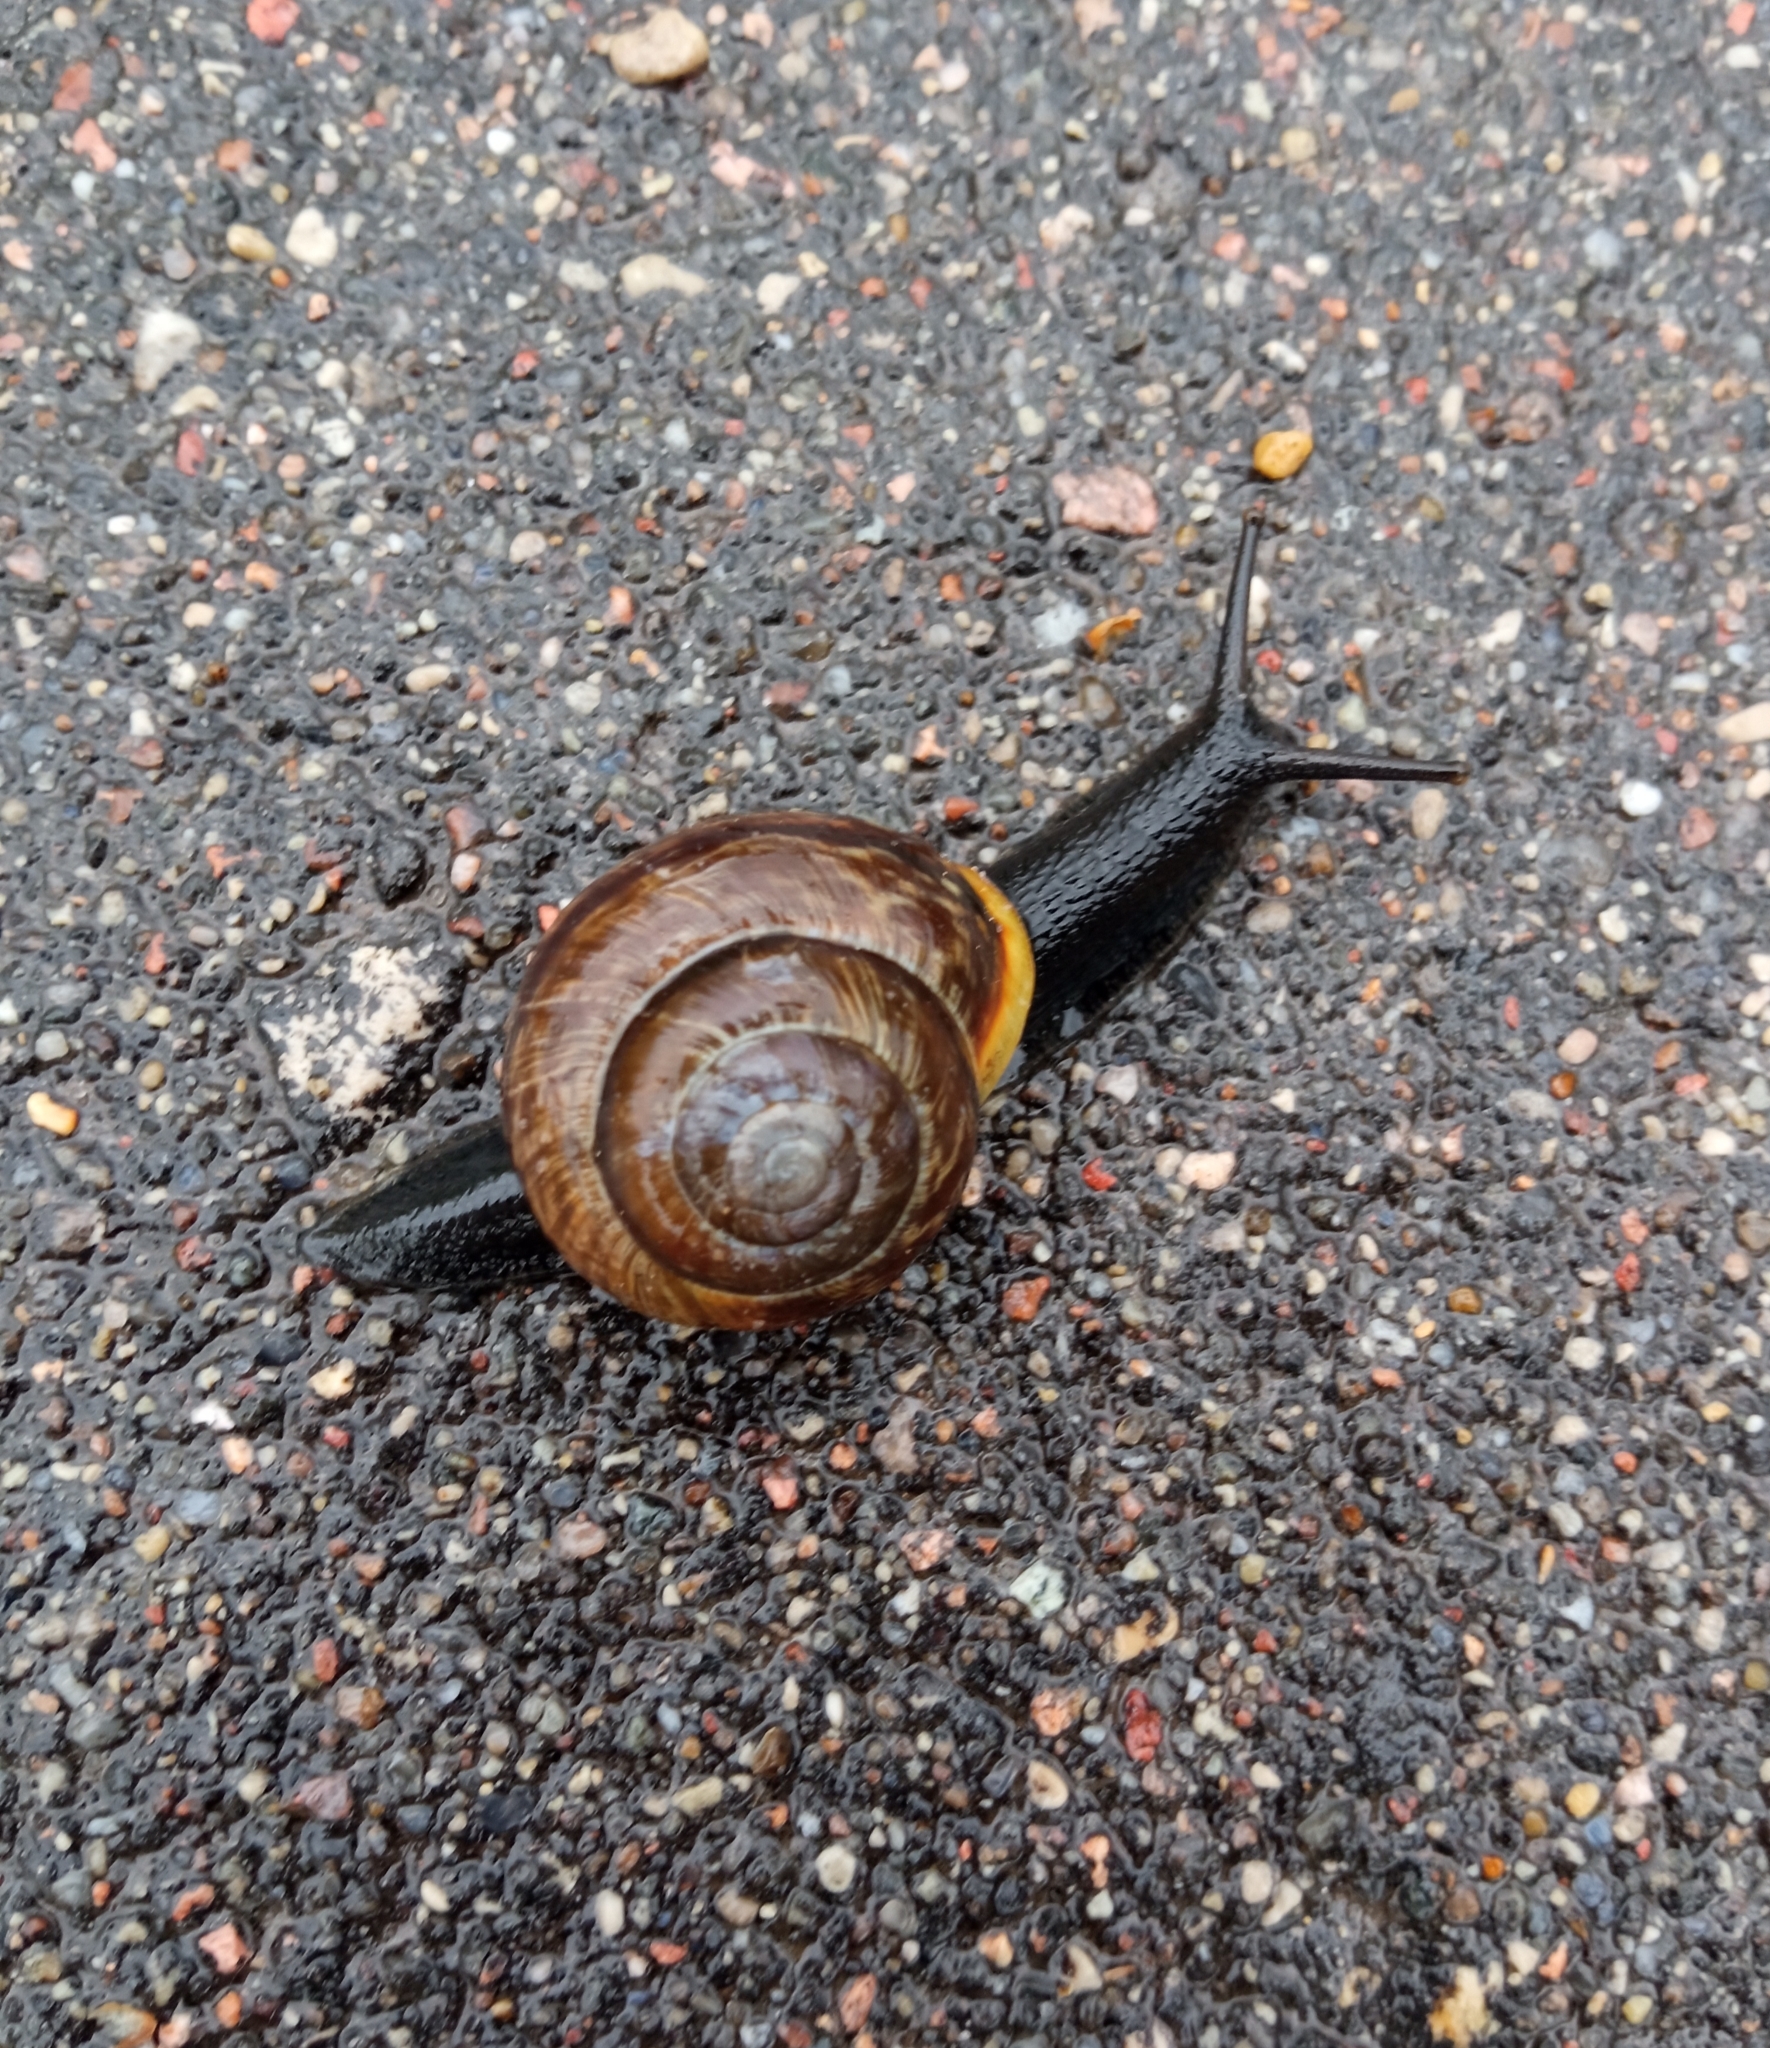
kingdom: Animalia
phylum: Mollusca
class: Gastropoda
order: Stylommatophora
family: Helicidae
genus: Arianta
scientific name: Arianta arbustorum
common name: Copse snail
